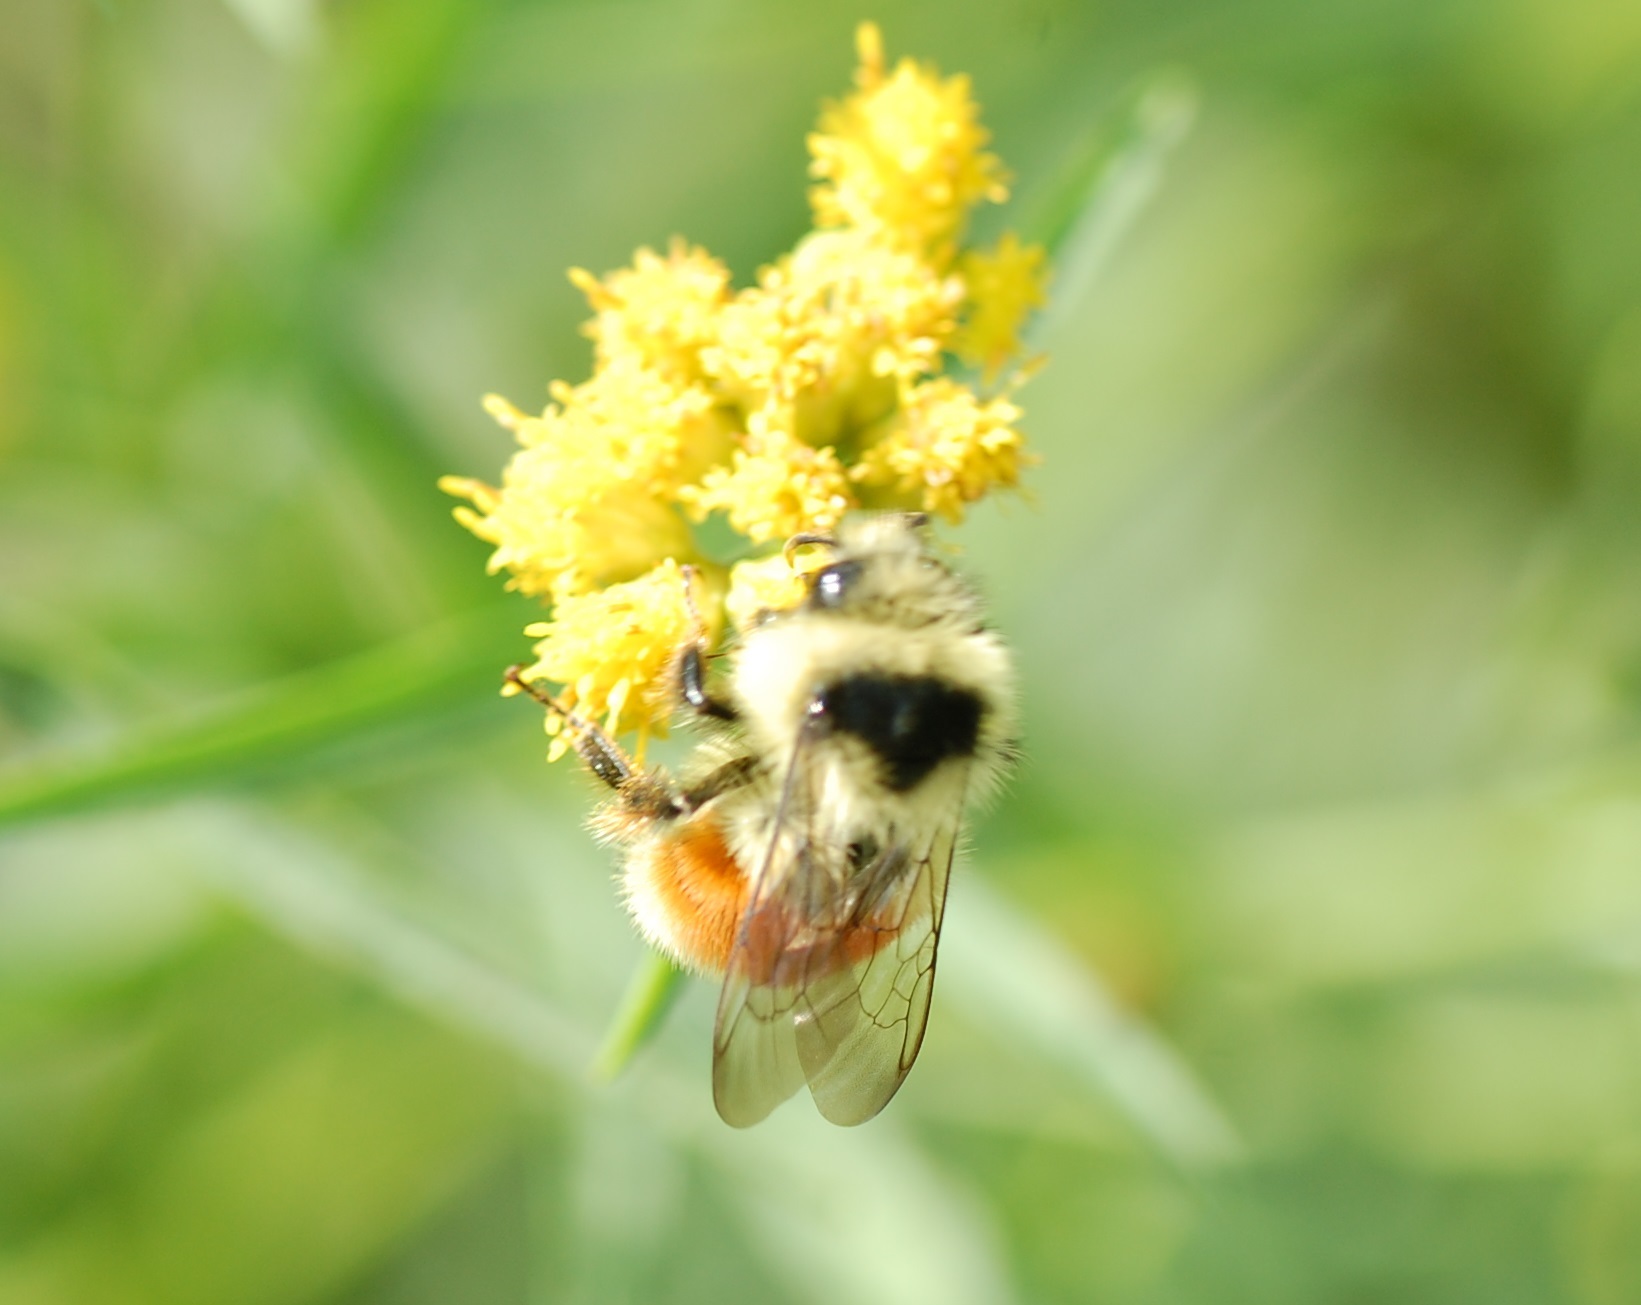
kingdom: Animalia
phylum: Arthropoda
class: Insecta
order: Hymenoptera
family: Apidae
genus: Bombus
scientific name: Bombus ternarius
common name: Tri-colored bumble bee
